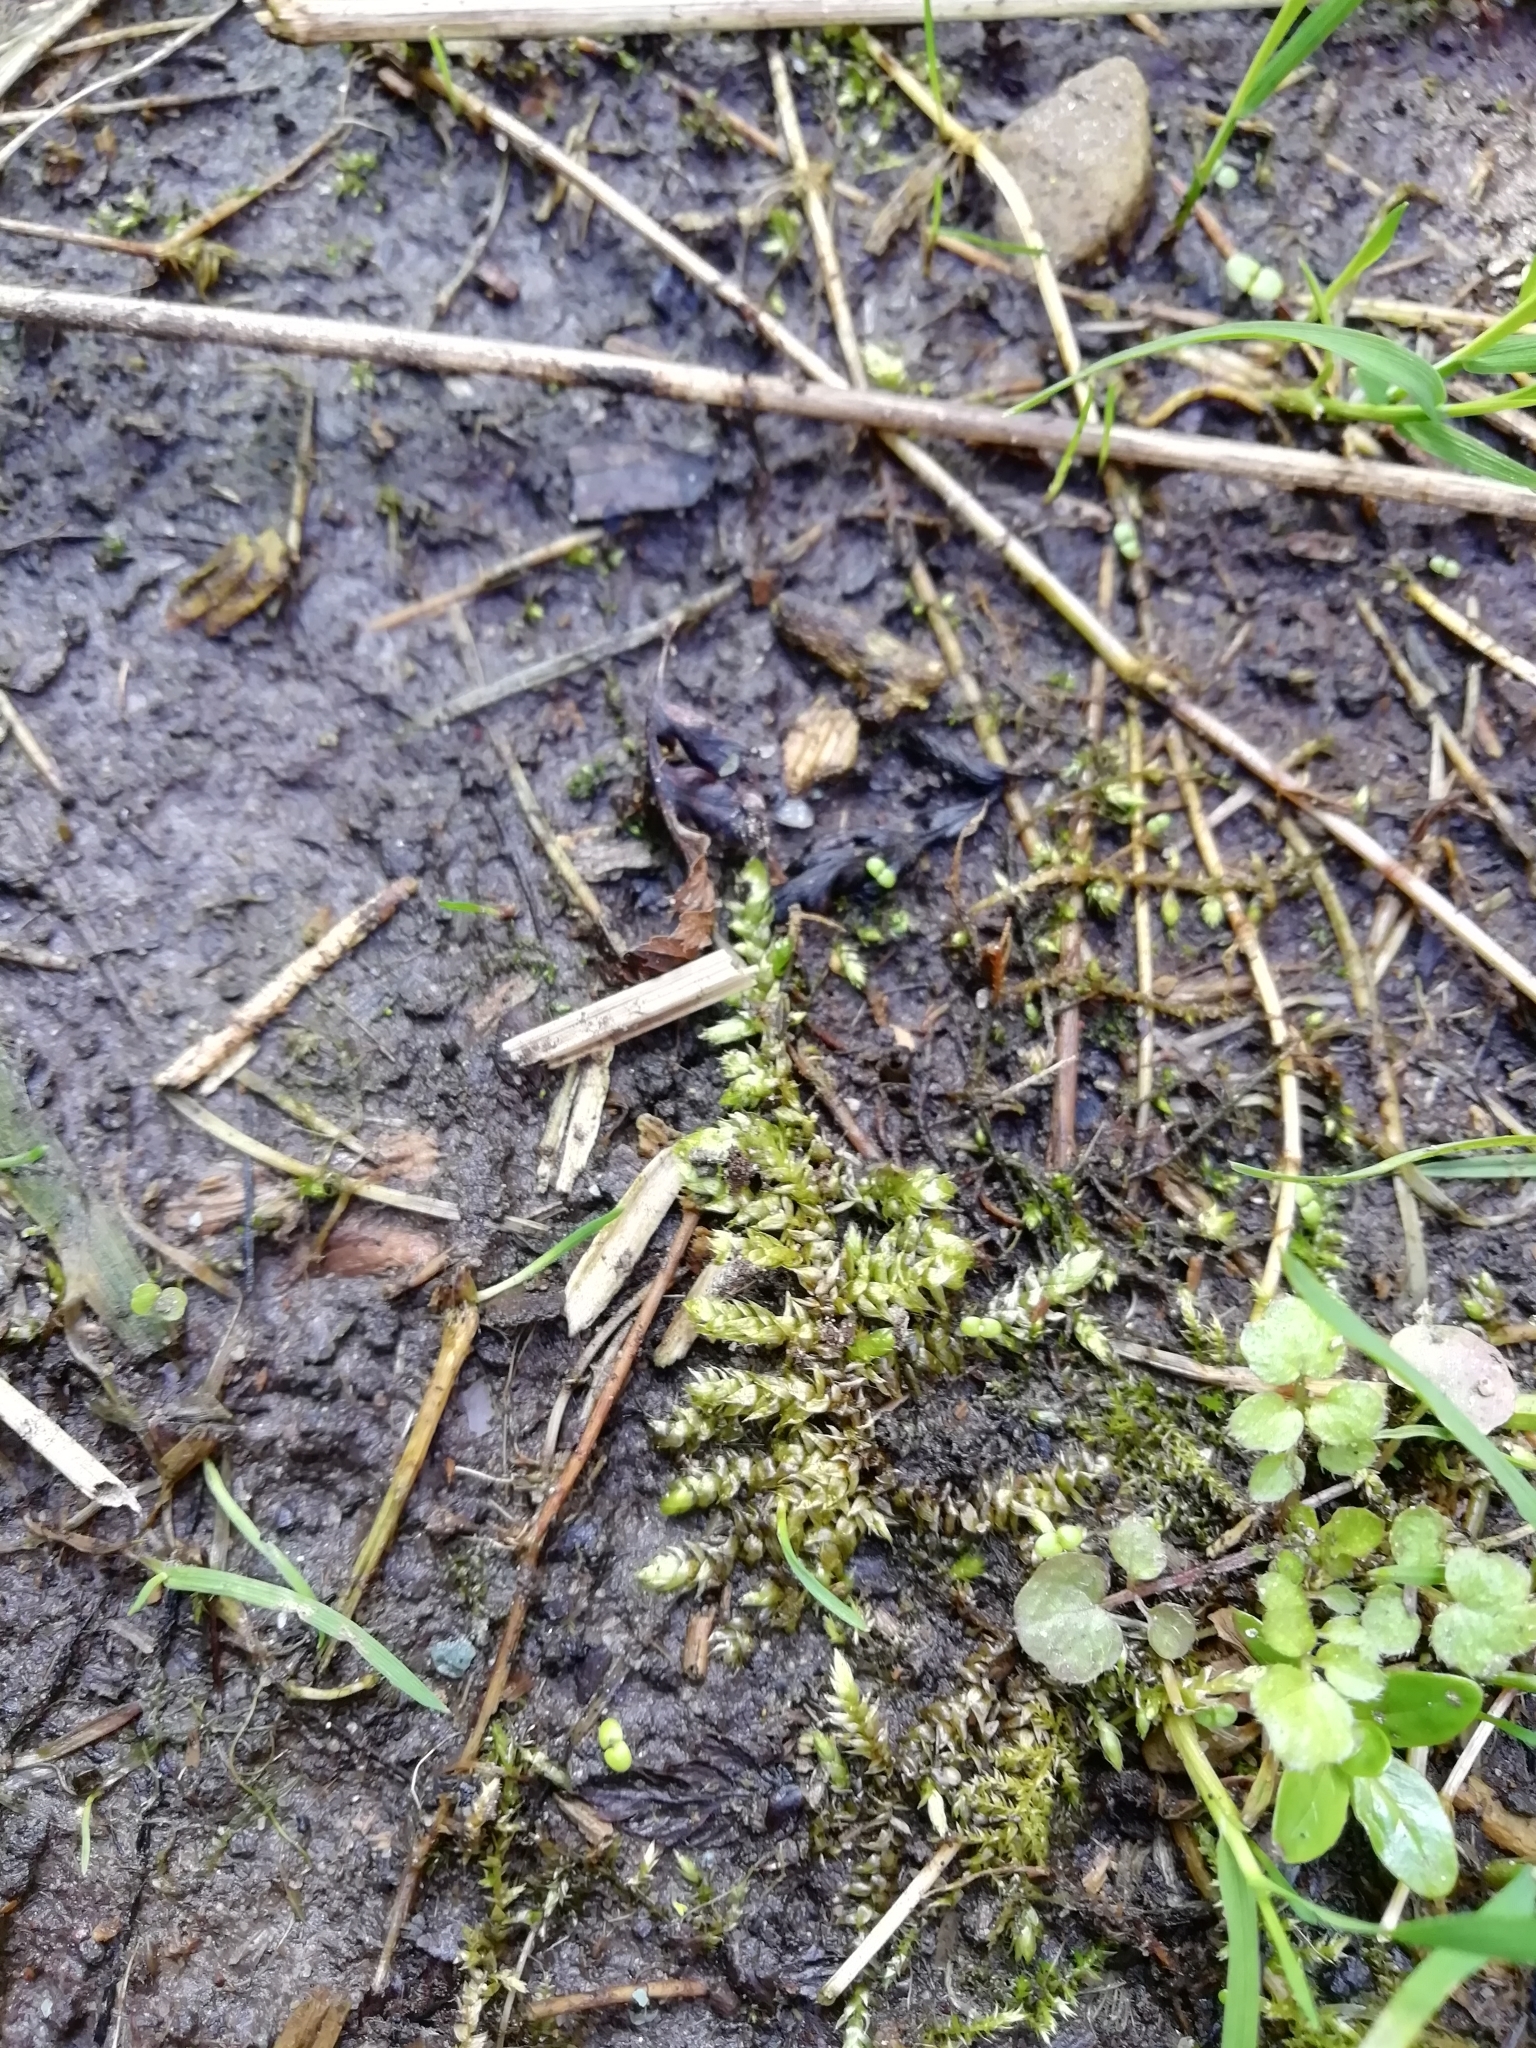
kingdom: Plantae
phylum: Bryophyta
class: Bryopsida
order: Hypnales
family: Brachytheciaceae
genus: Brachythecium
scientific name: Brachythecium rutabulum
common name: Rough-stalked feather-moss
